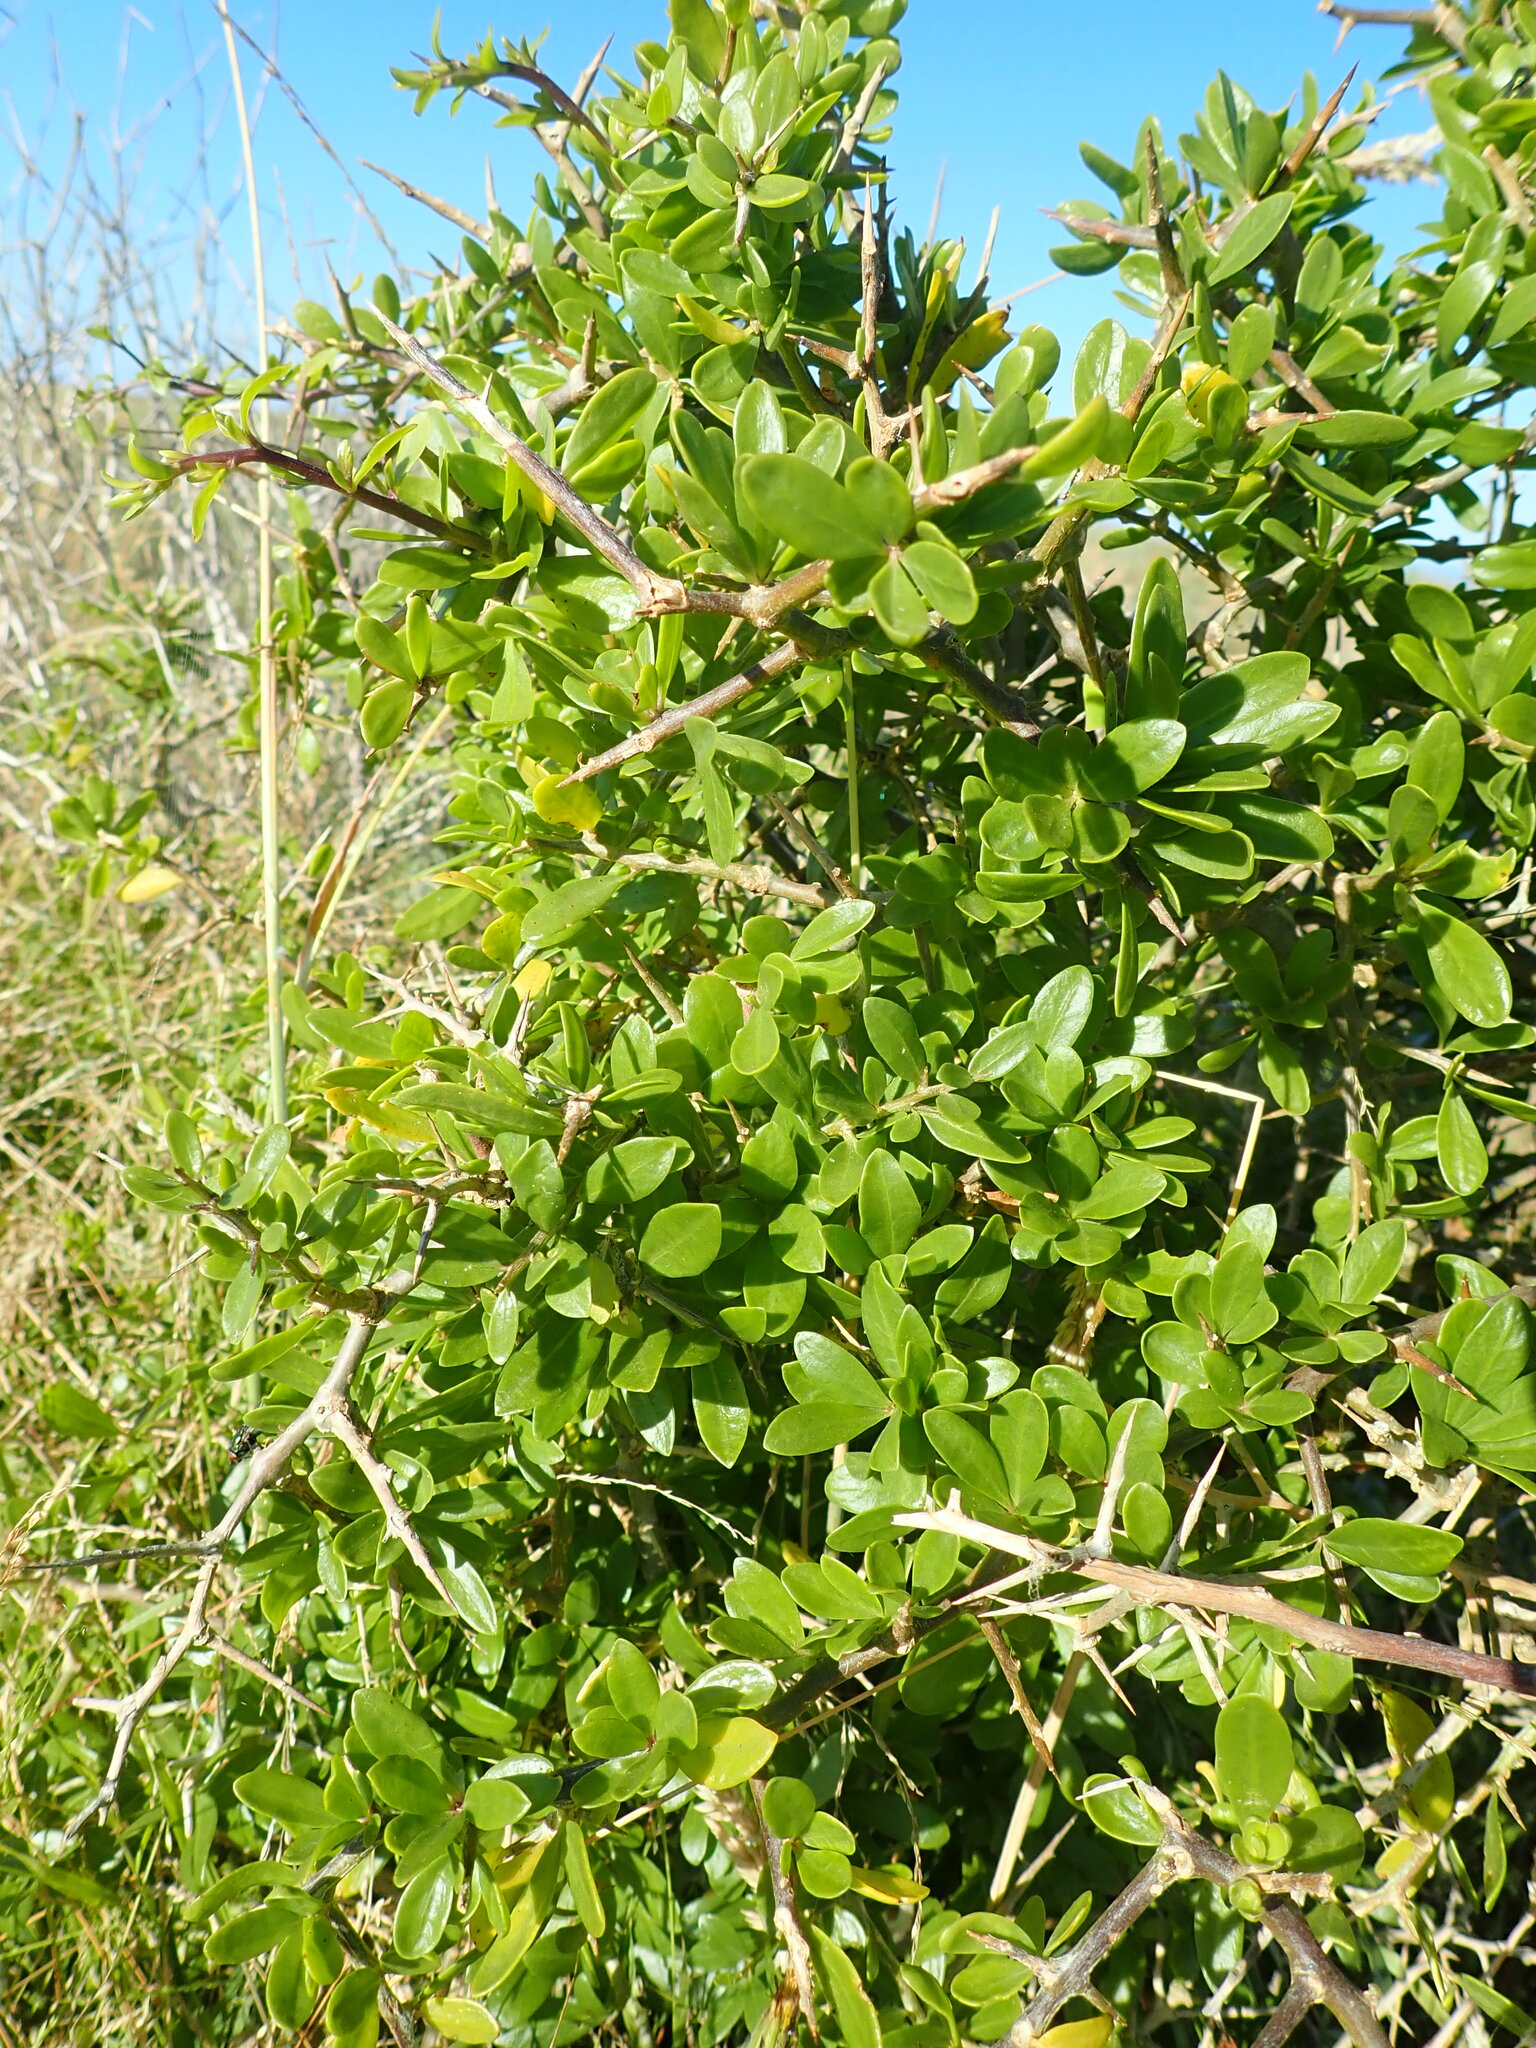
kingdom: Plantae
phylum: Tracheophyta
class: Magnoliopsida
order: Solanales
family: Solanaceae
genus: Lycium
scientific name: Lycium ferocissimum
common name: African boxthorn
